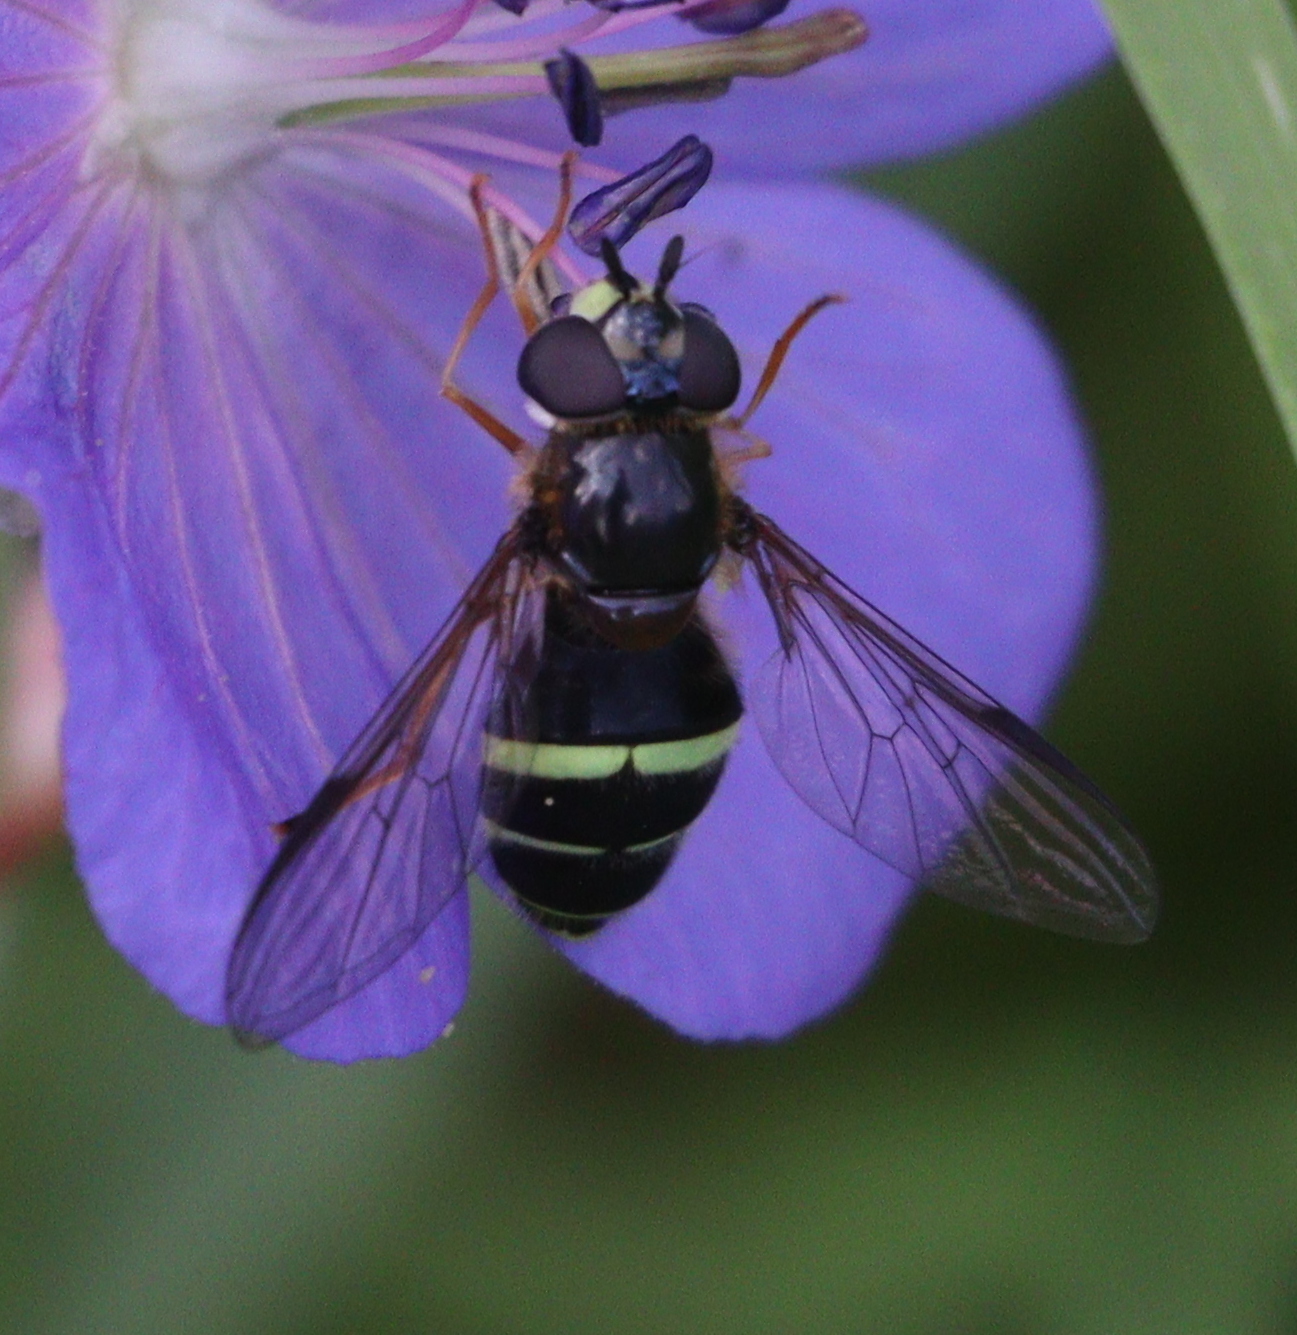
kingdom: Animalia
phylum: Arthropoda
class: Insecta
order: Diptera
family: Syrphidae
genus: Dasysyrphus
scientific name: Dasysyrphus tricinctus
